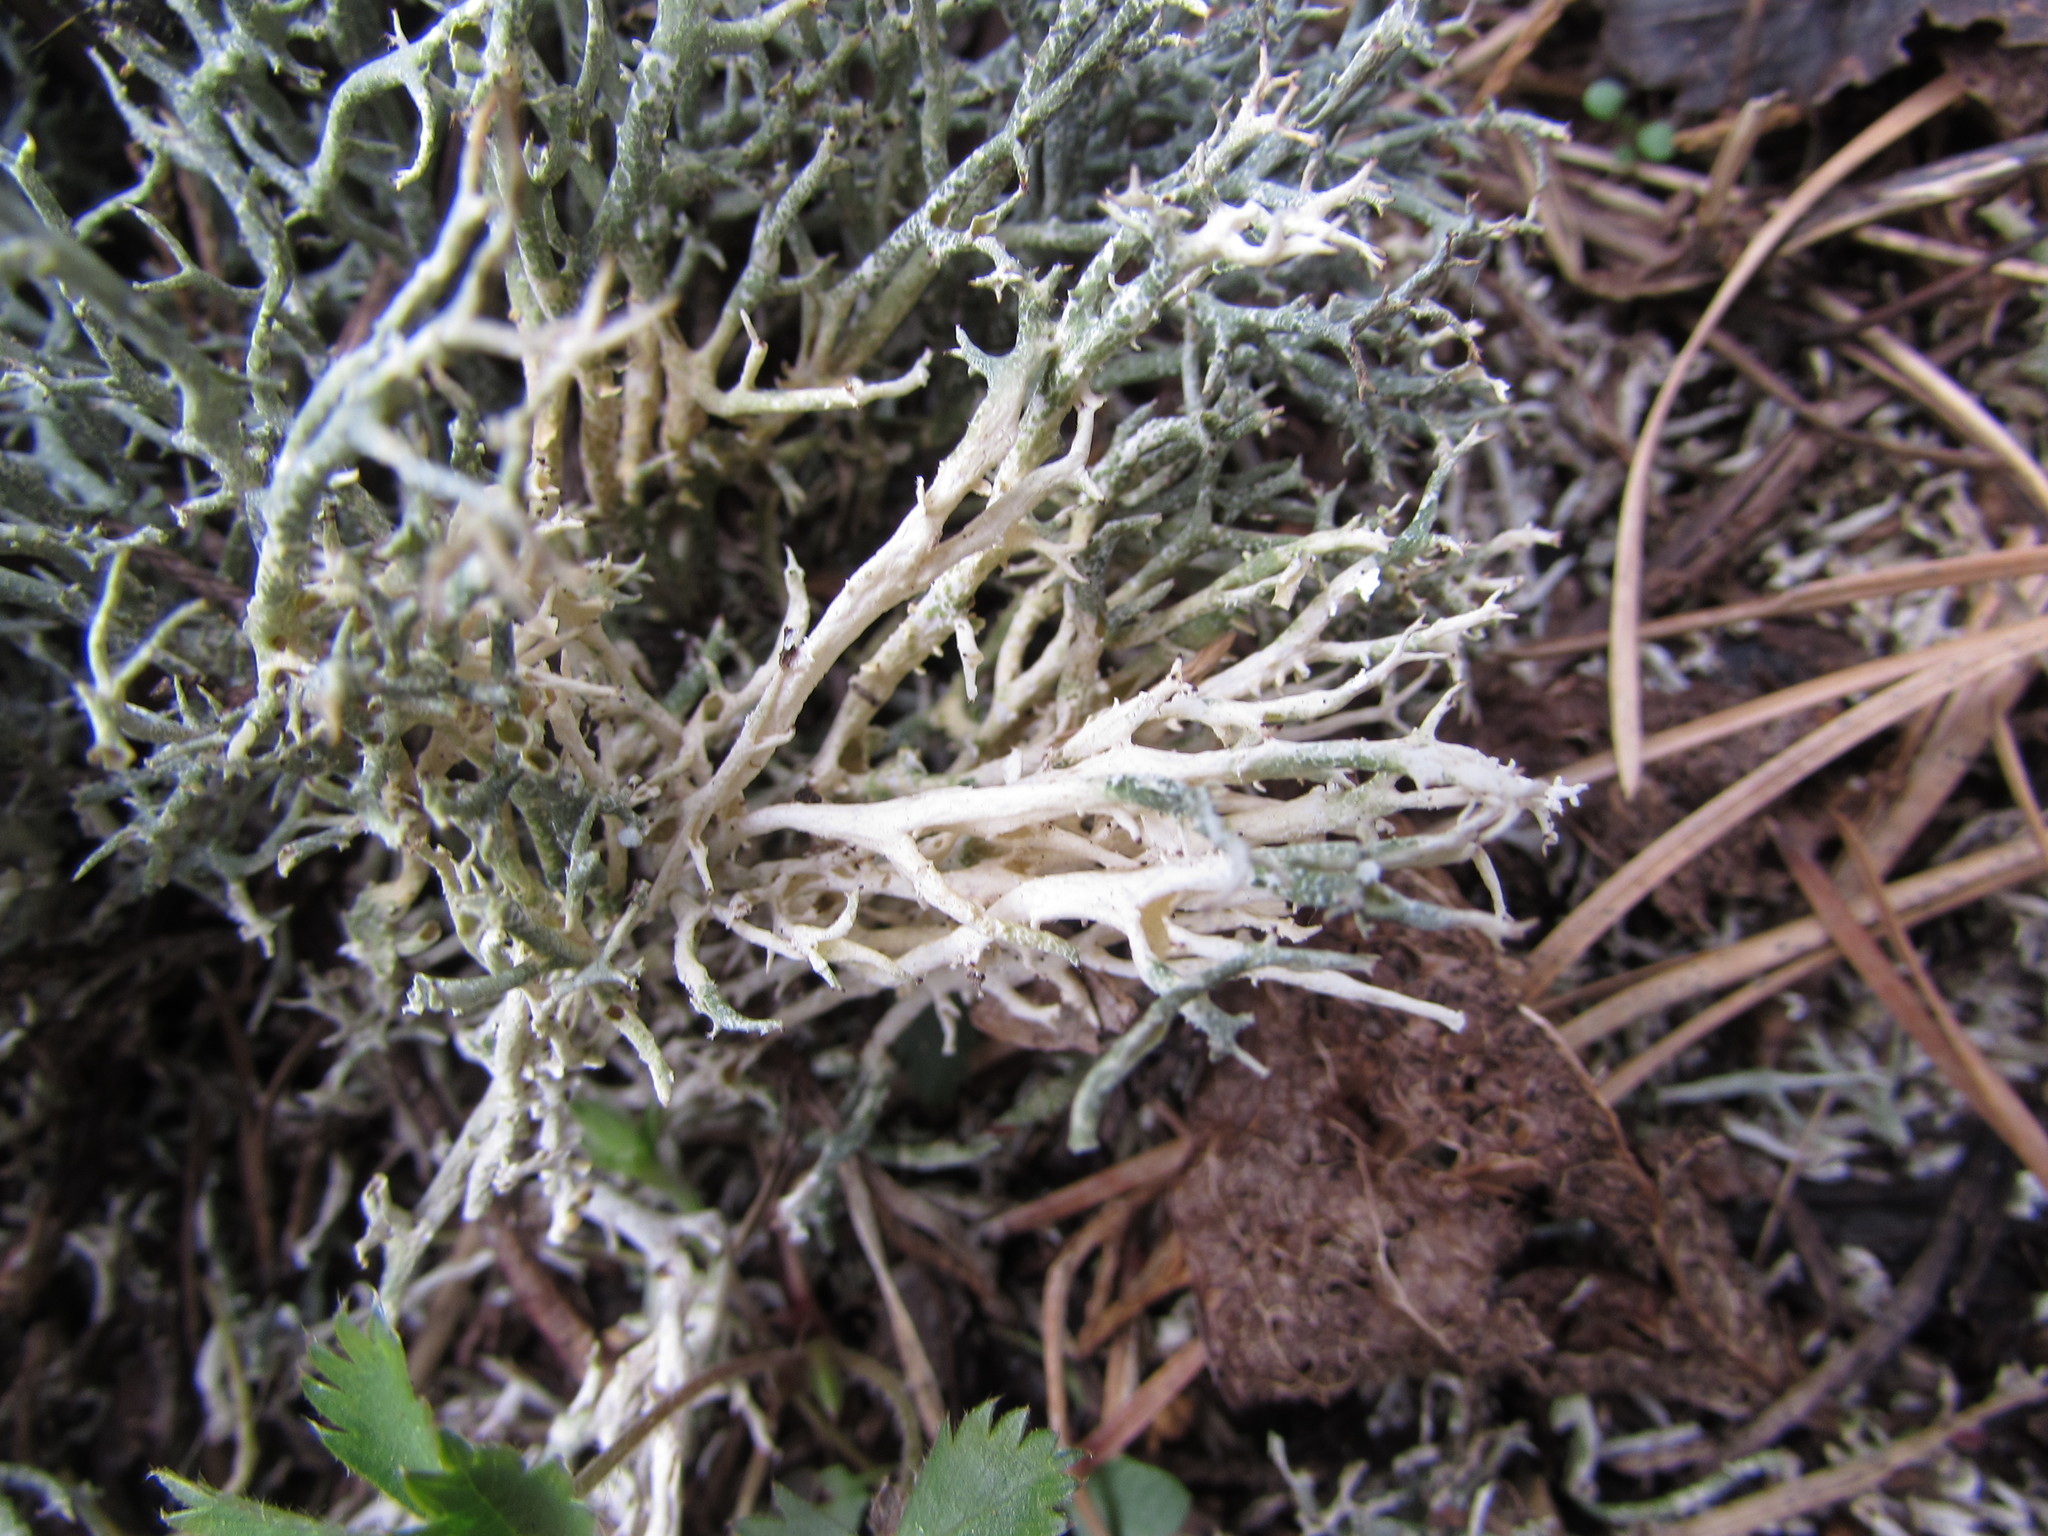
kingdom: Fungi
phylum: Ascomycota
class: Lecanoromycetes
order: Lecanorales
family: Cladoniaceae
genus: Cladonia
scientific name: Cladonia furcata
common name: Many-forked cladonia
